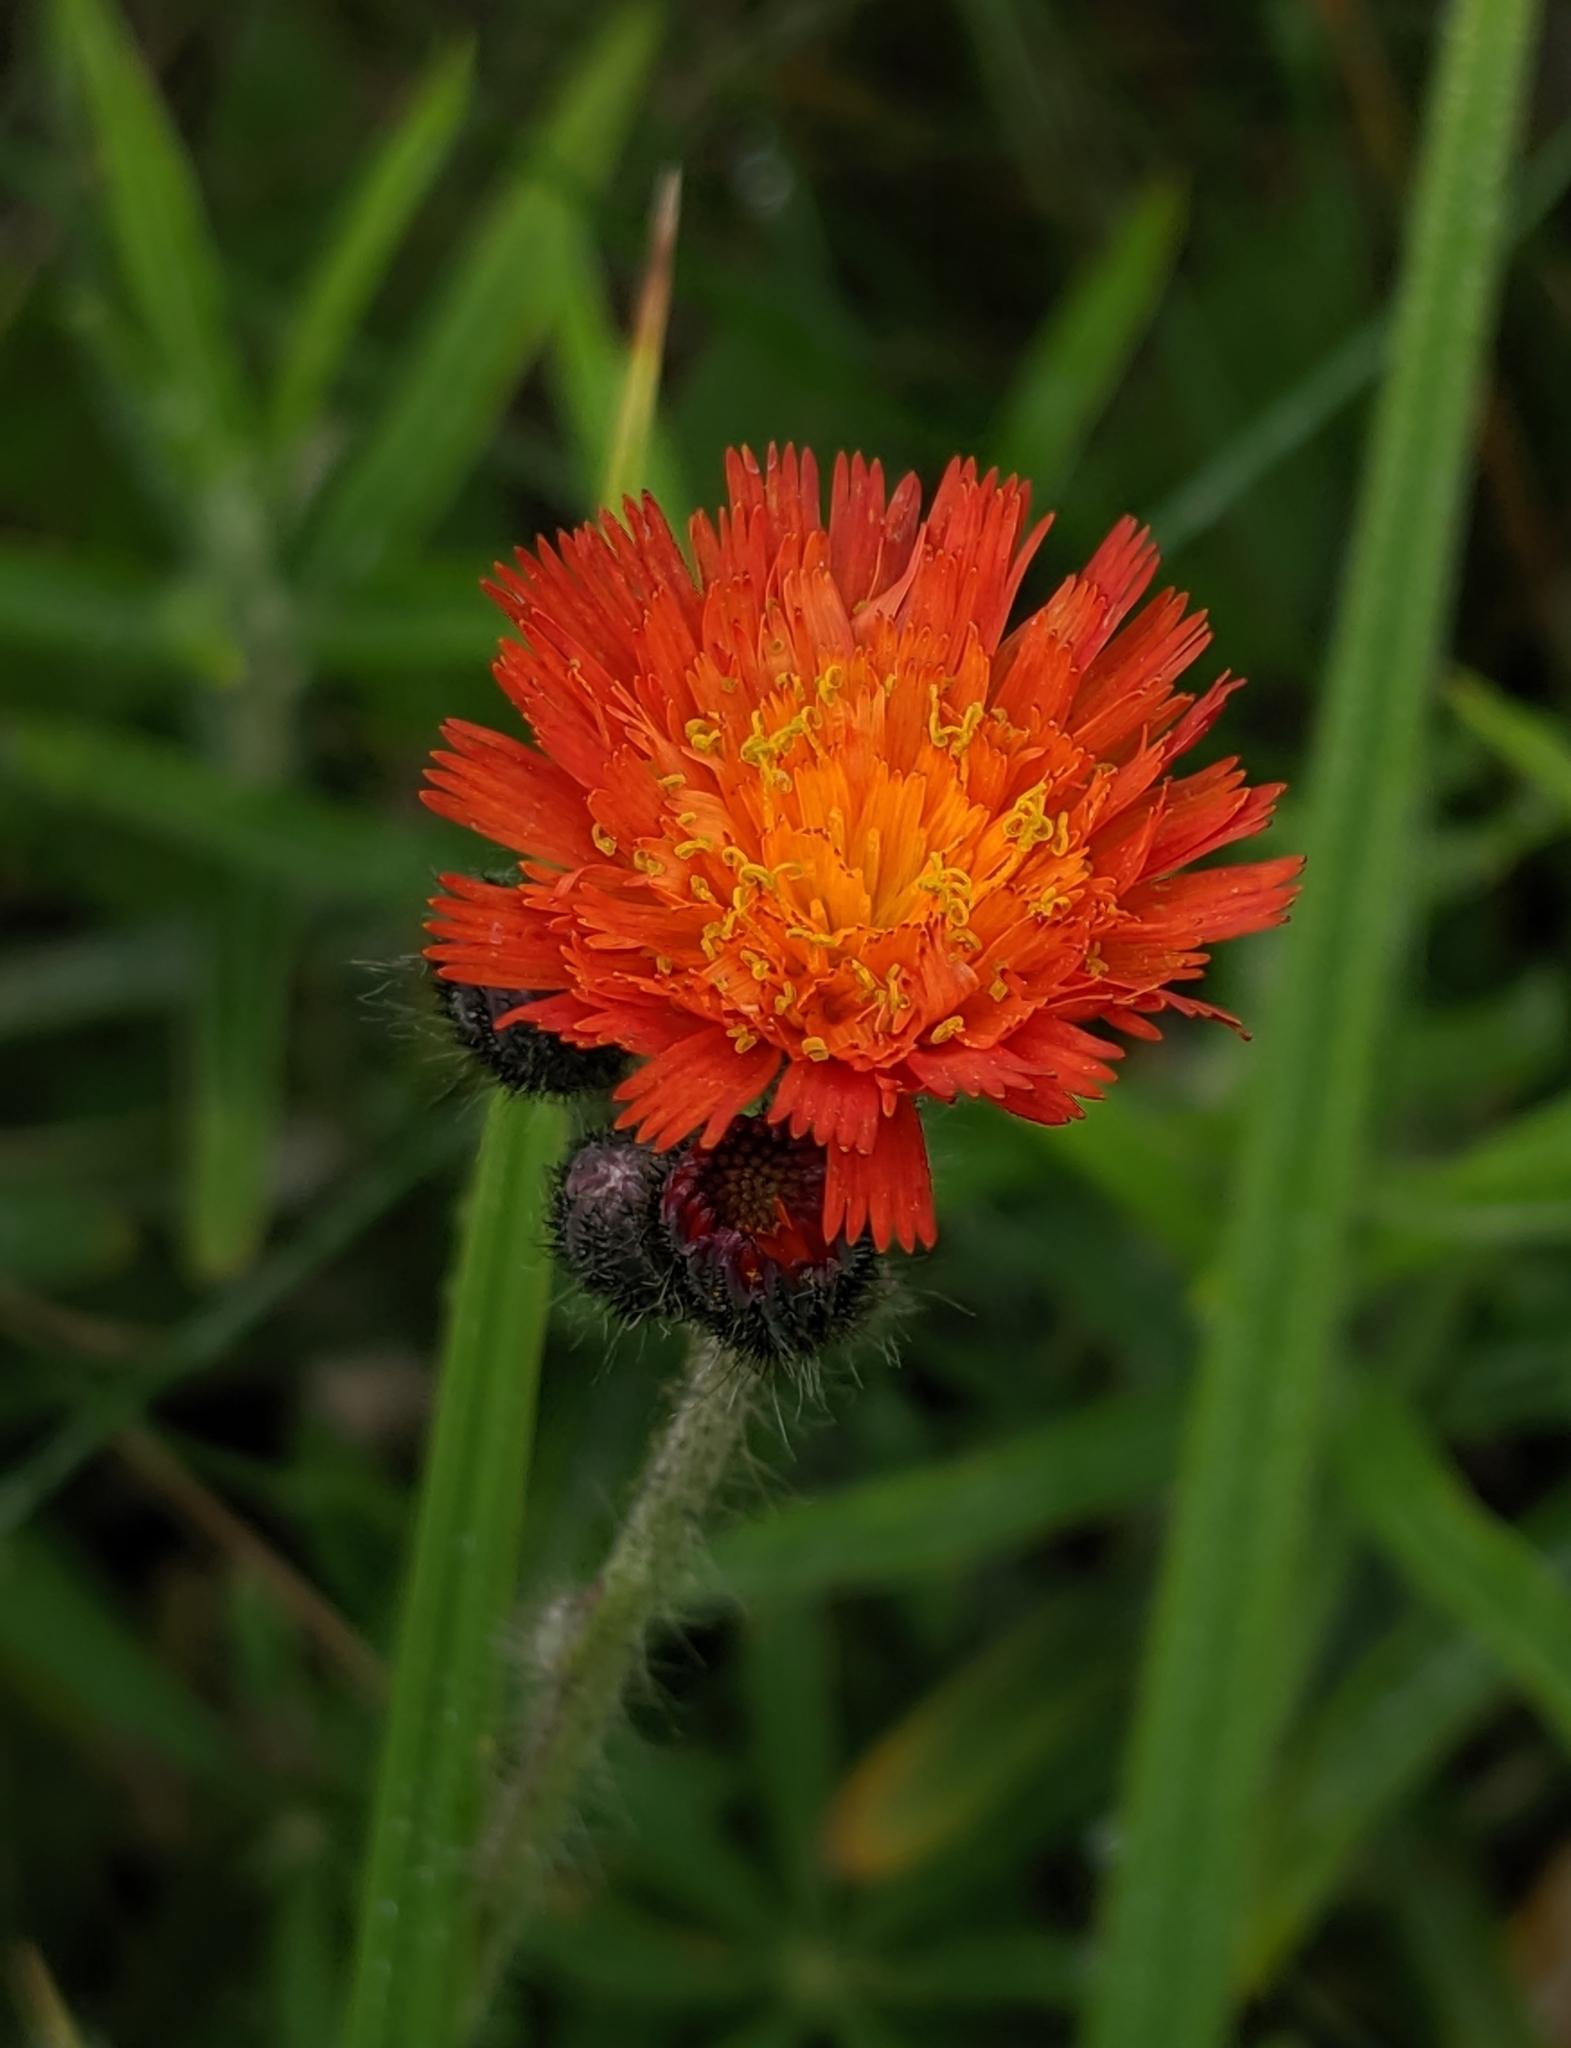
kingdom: Plantae
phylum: Tracheophyta
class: Magnoliopsida
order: Asterales
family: Asteraceae
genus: Pilosella
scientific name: Pilosella aurantiaca
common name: Fox-and-cubs
